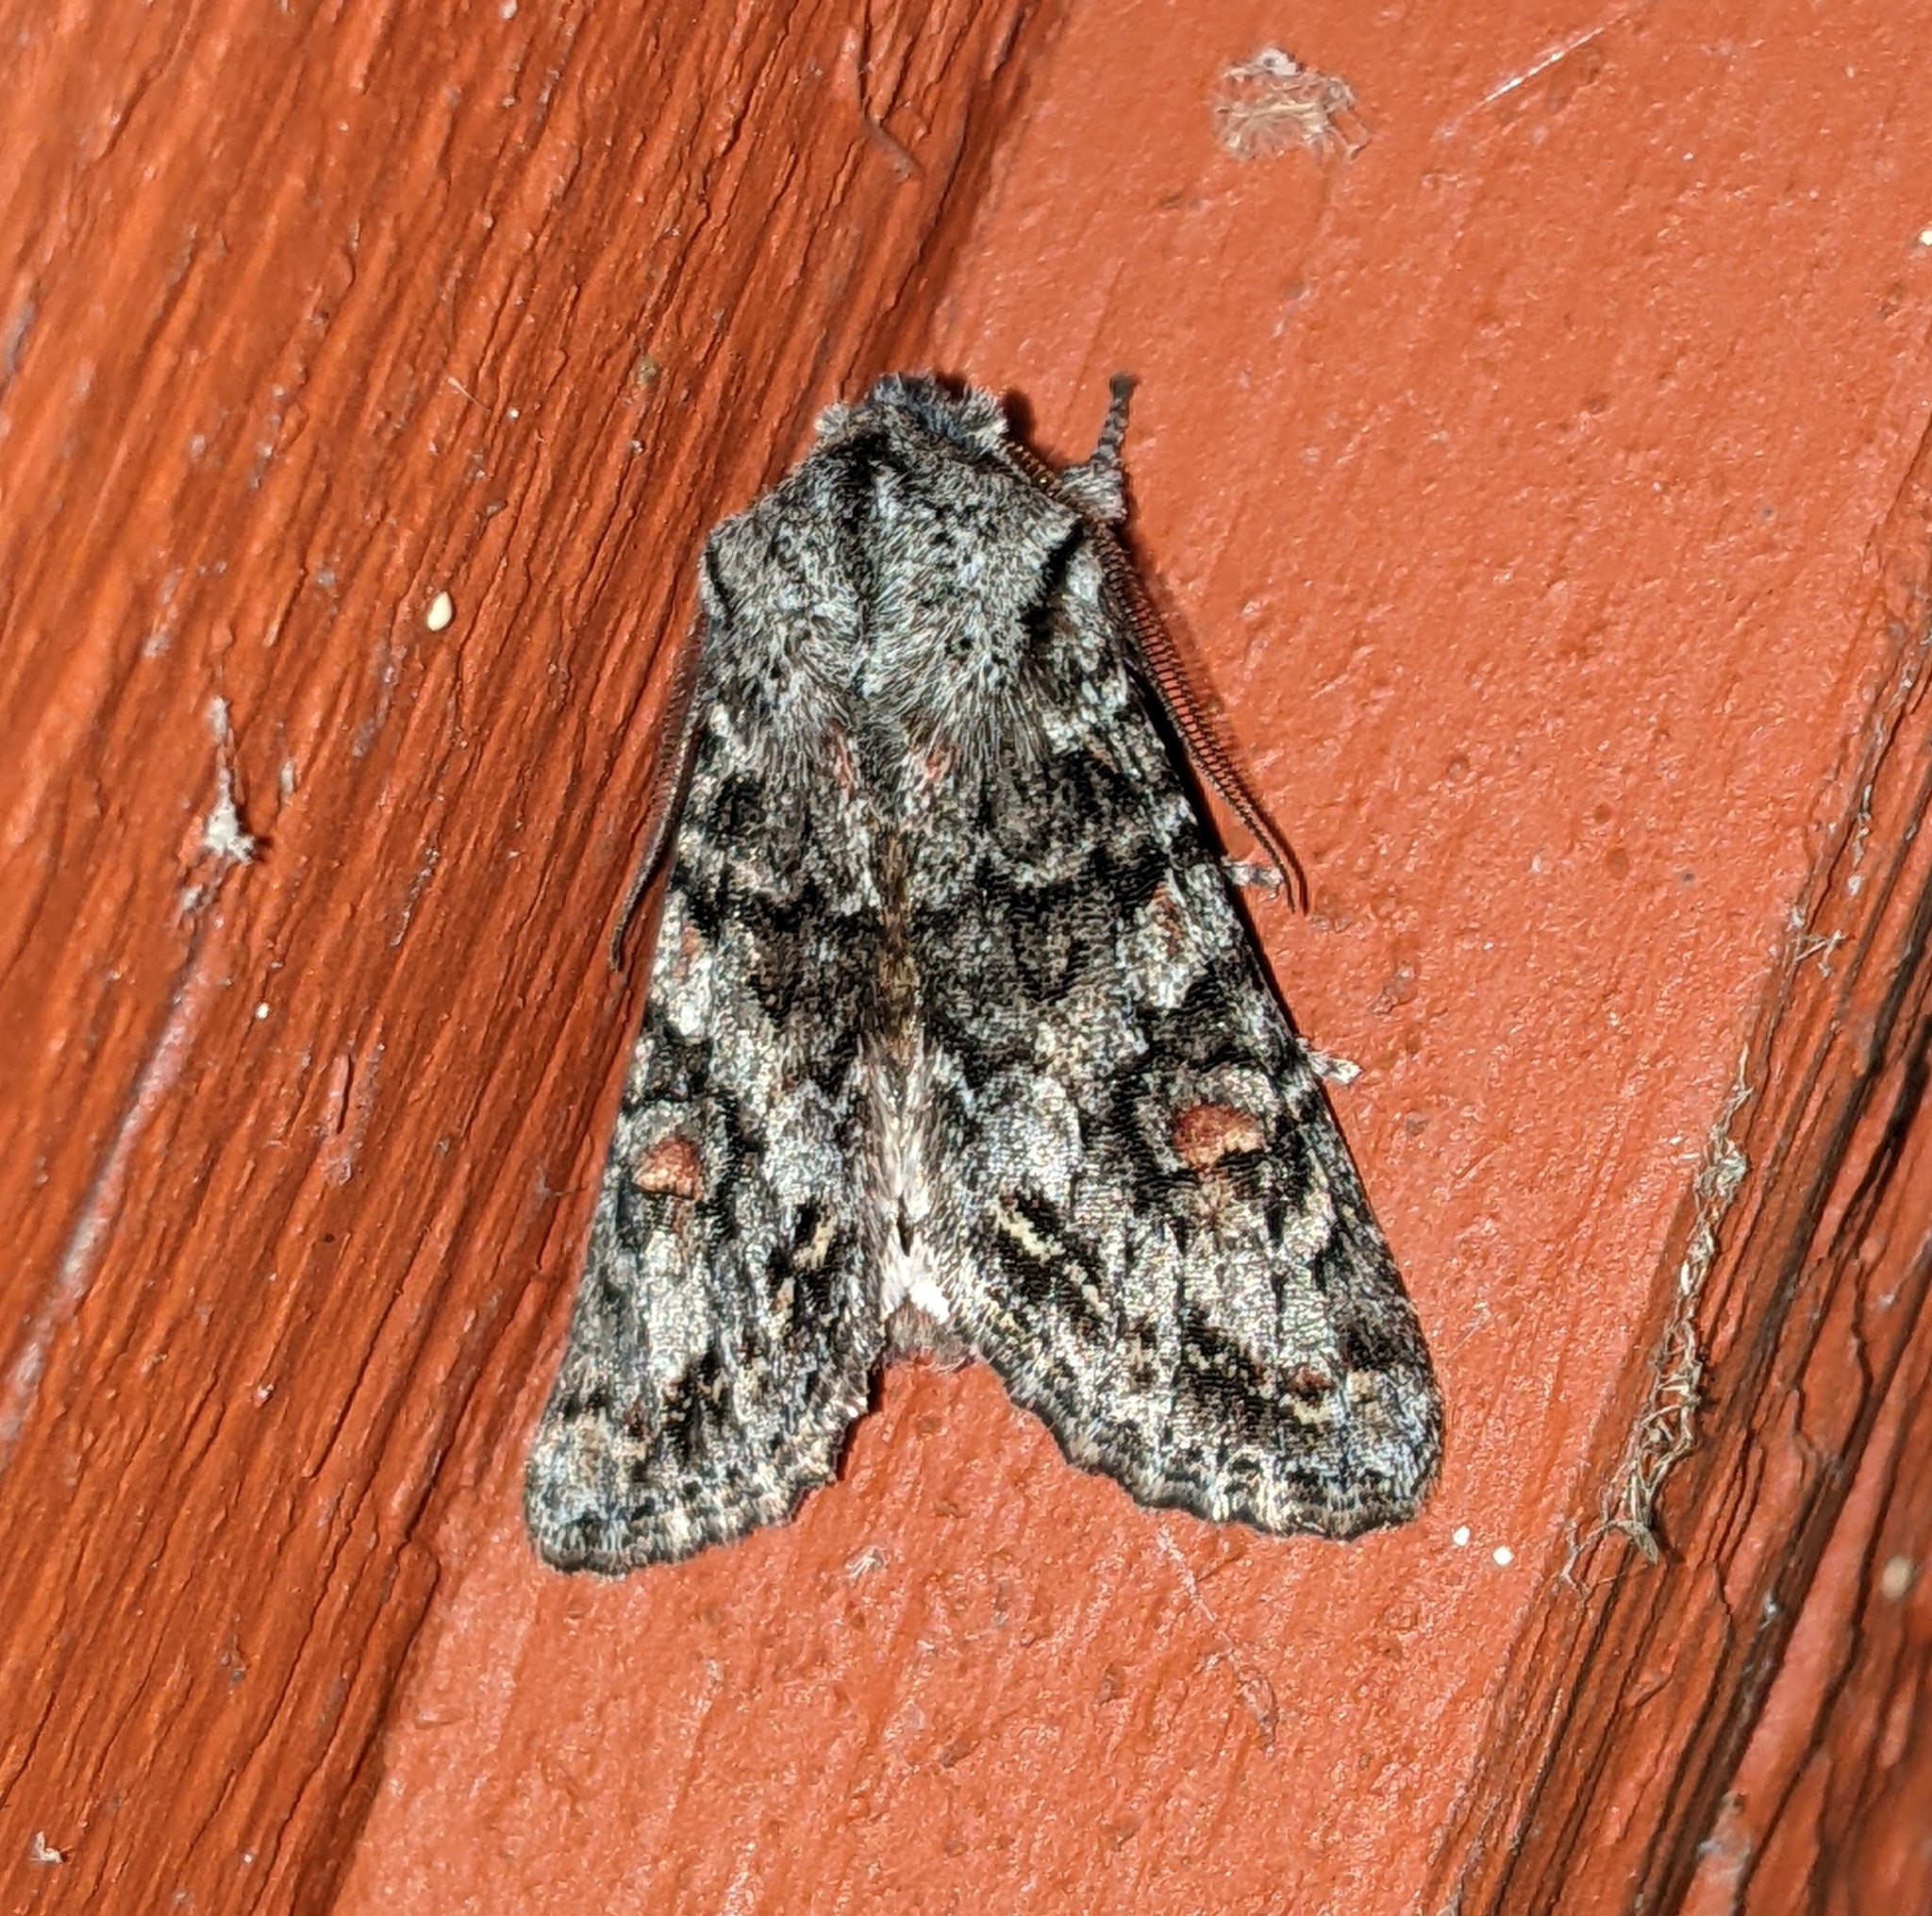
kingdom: Animalia
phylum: Arthropoda
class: Insecta
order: Lepidoptera
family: Noctuidae
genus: Egira
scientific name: Egira hiemalis
